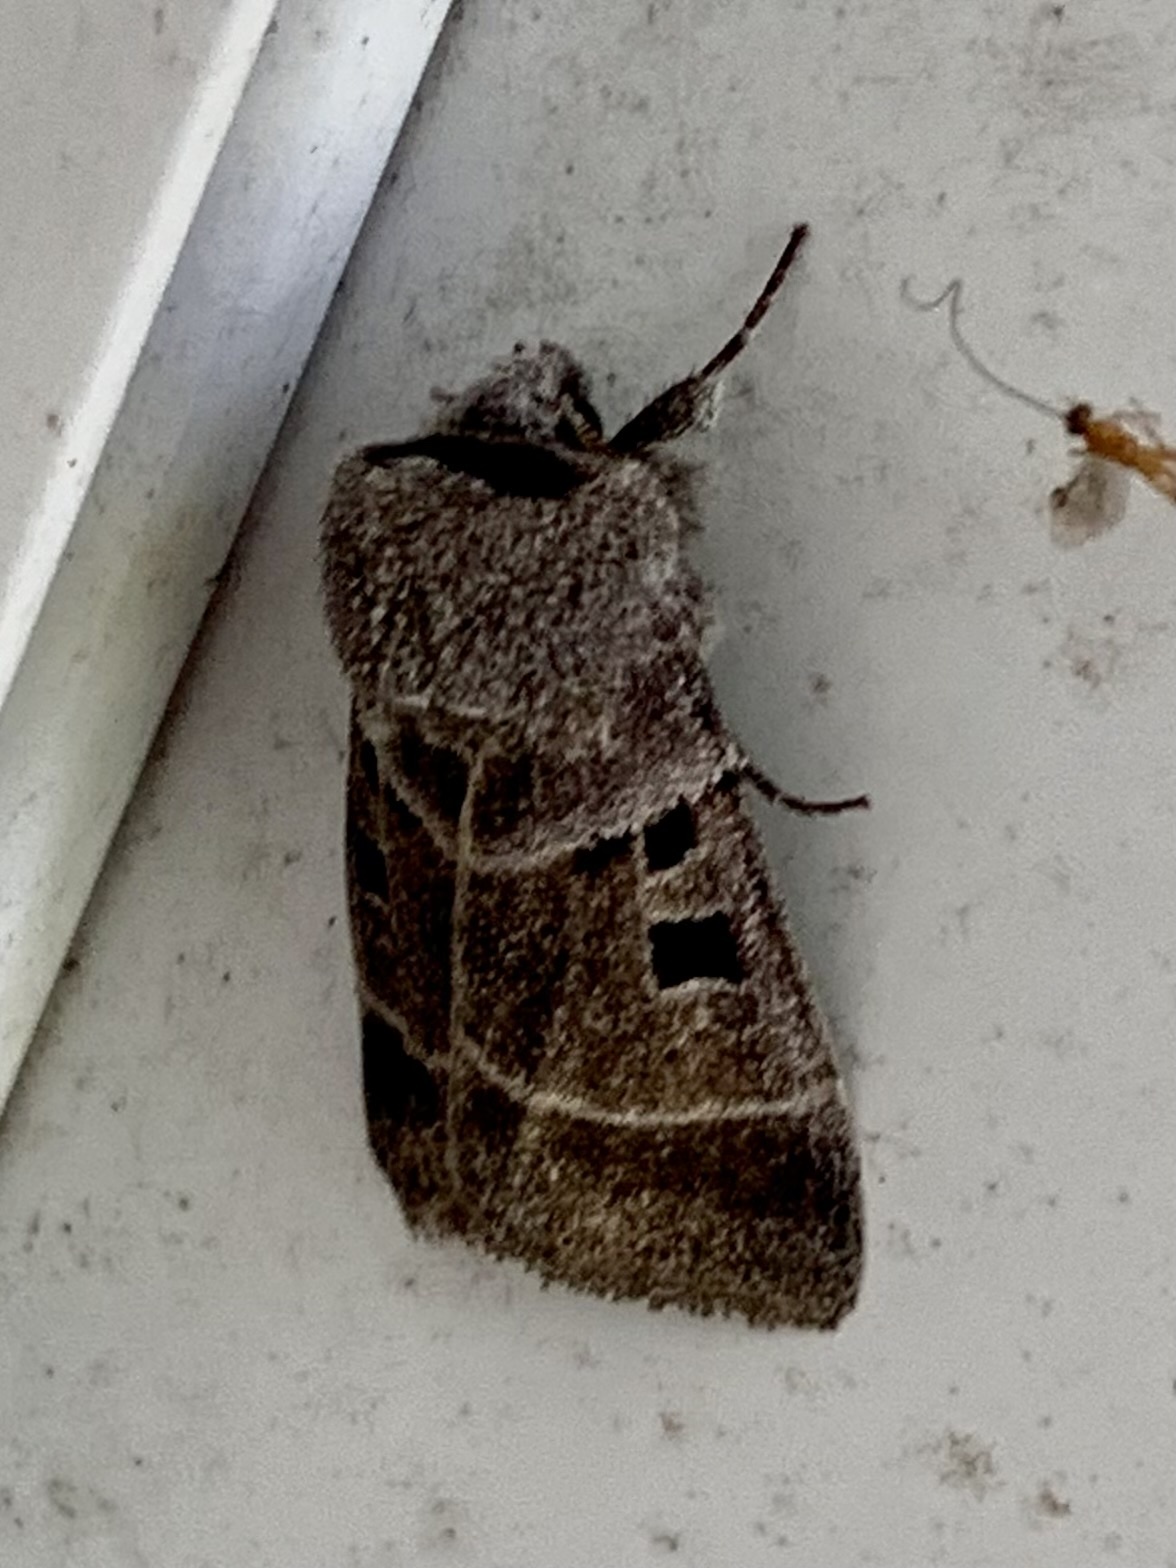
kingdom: Animalia
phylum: Arthropoda
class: Insecta
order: Lepidoptera
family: Noctuidae
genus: Agnorisma
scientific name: Agnorisma bollii
